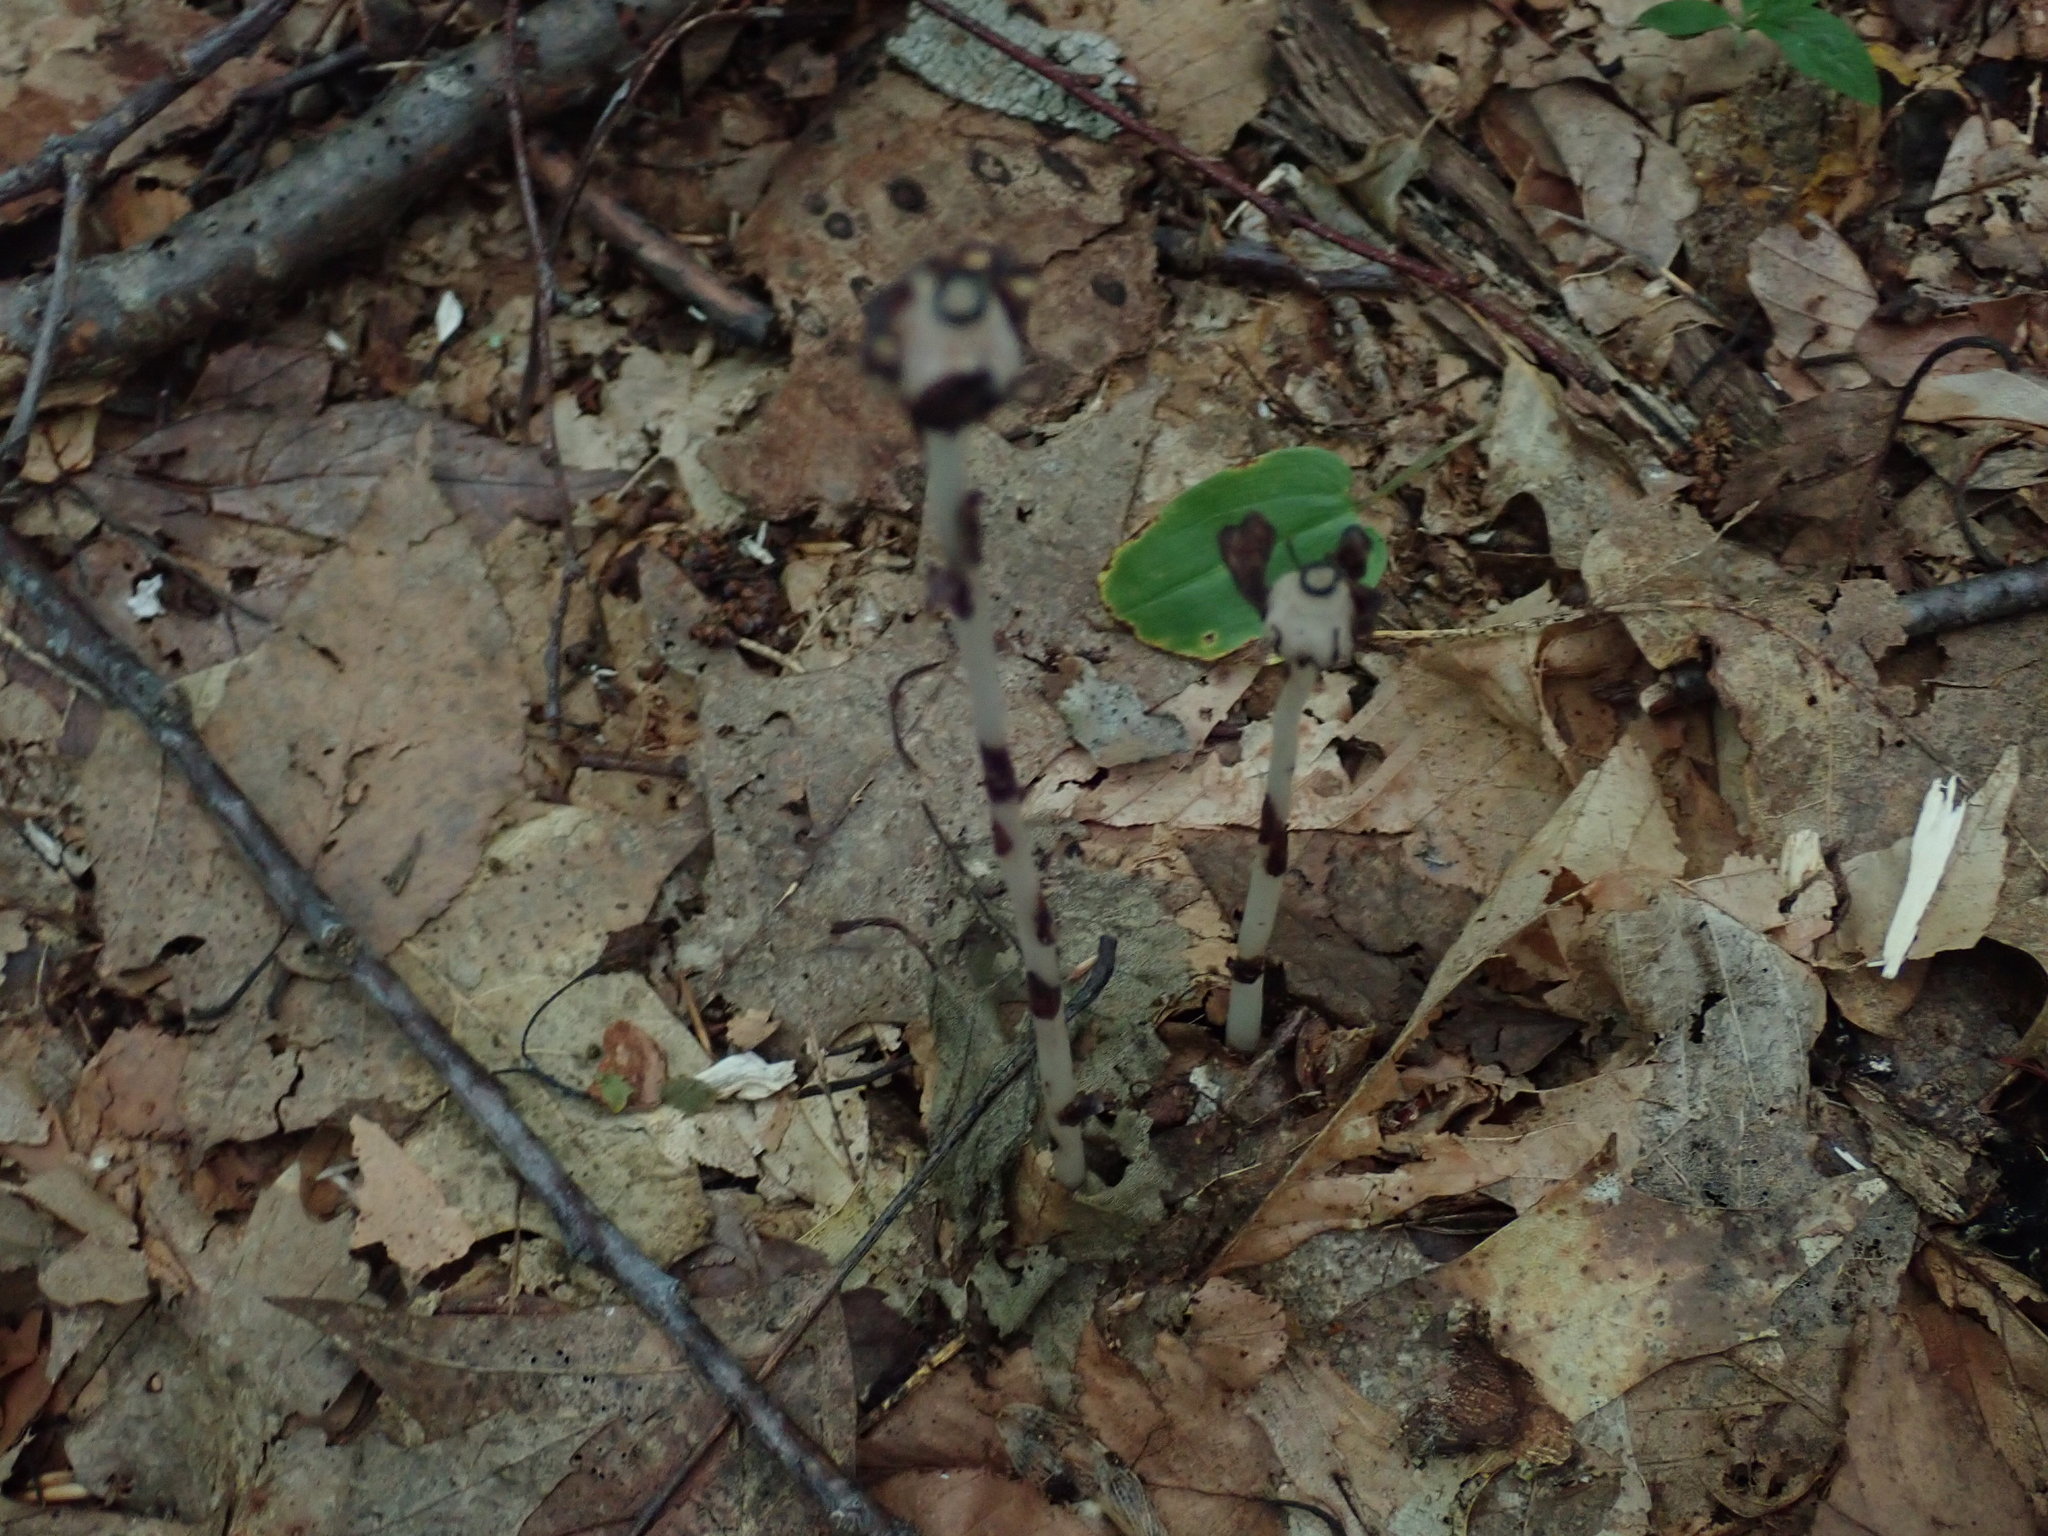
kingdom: Plantae
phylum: Tracheophyta
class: Magnoliopsida
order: Ericales
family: Ericaceae
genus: Monotropa
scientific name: Monotropa uniflora
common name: Convulsion root
